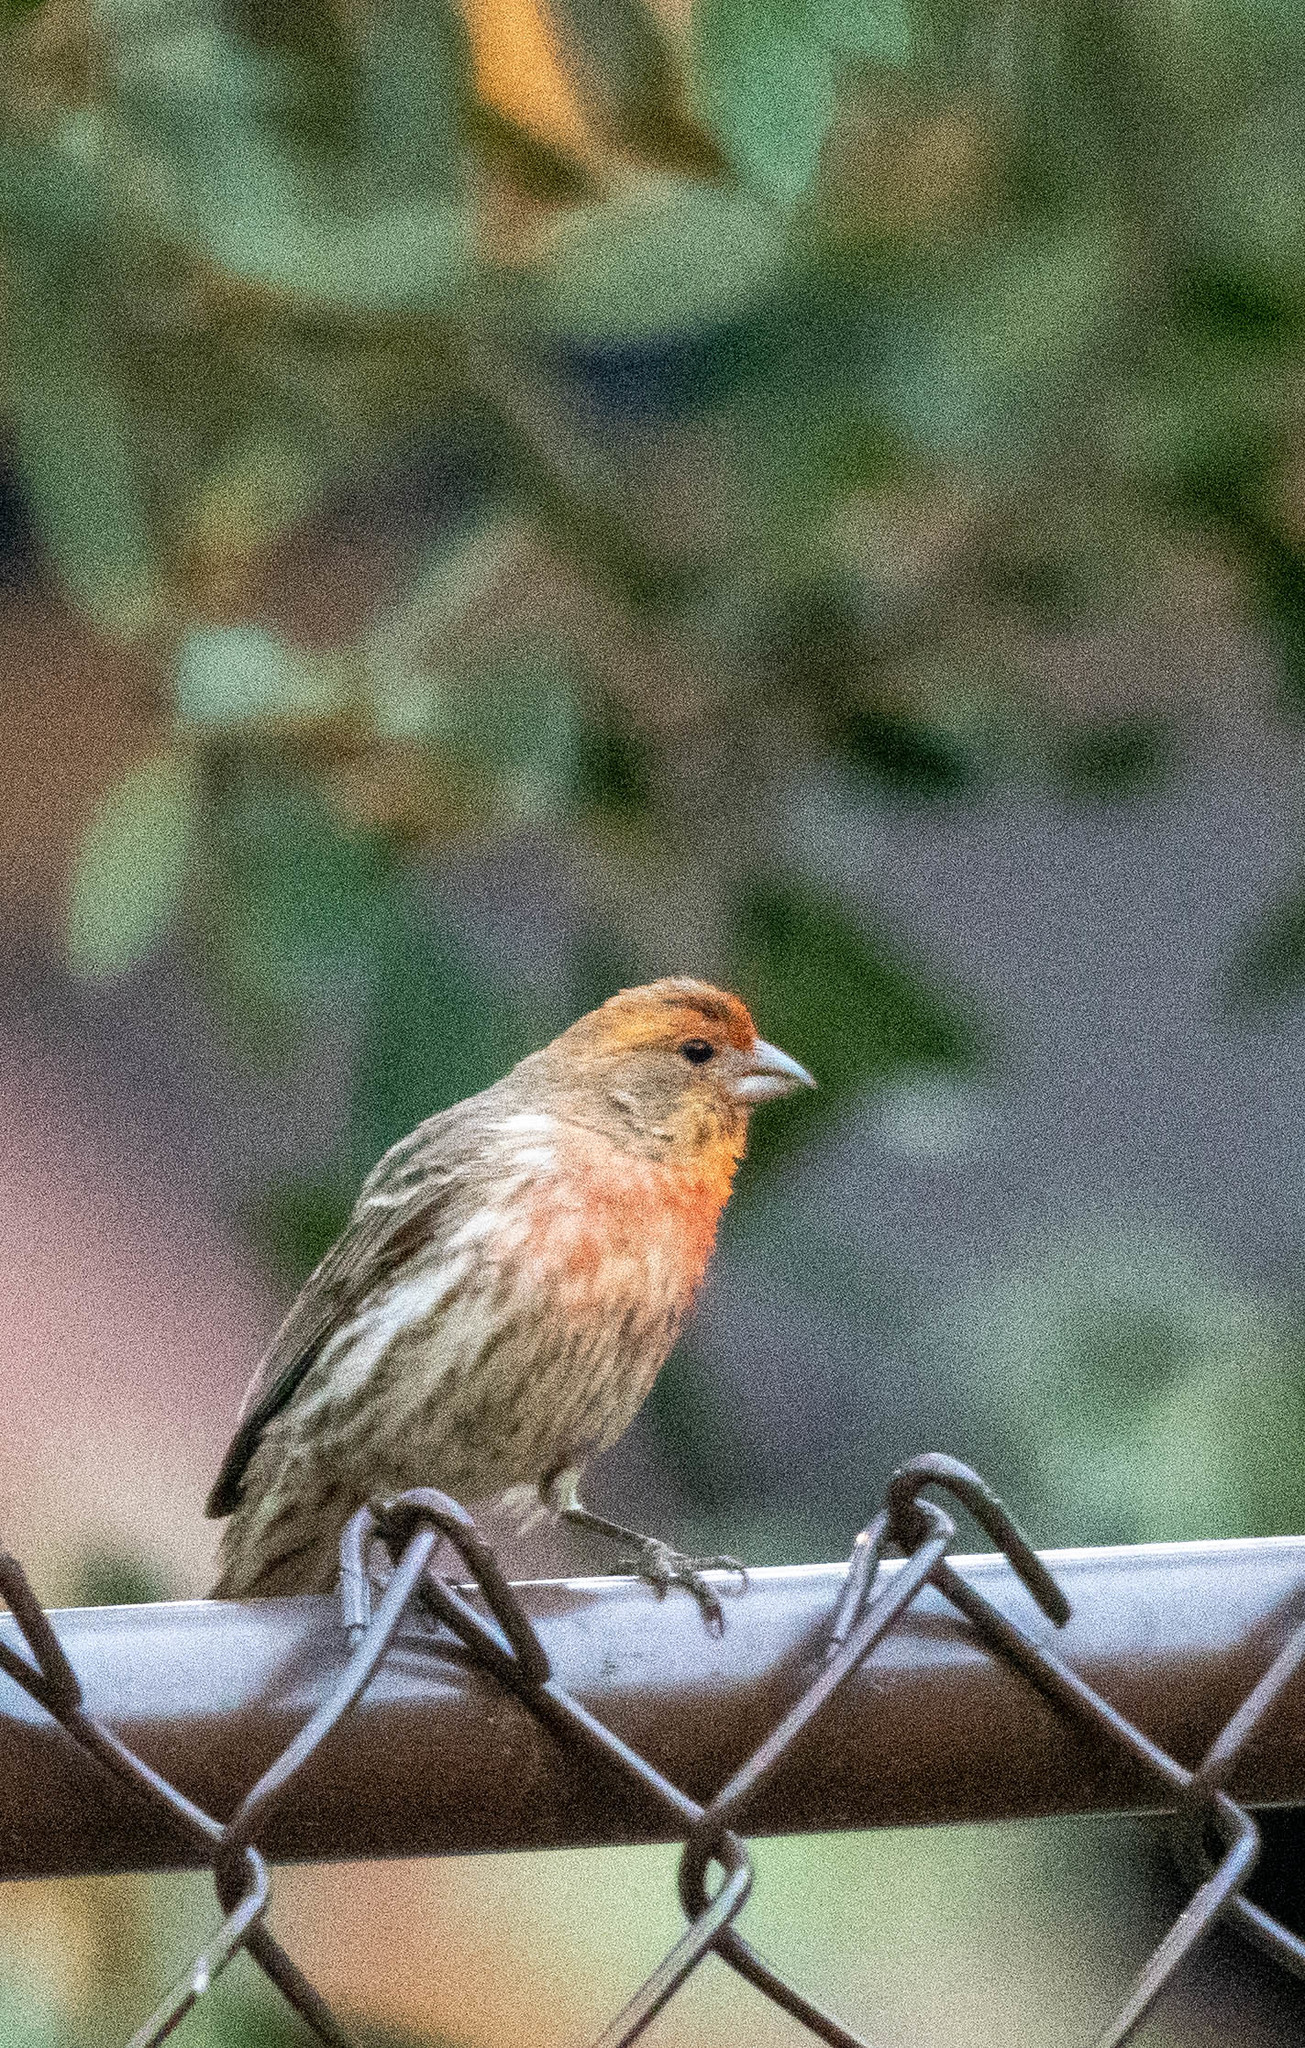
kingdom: Animalia
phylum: Chordata
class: Aves
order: Passeriformes
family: Fringillidae
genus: Haemorhous
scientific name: Haemorhous mexicanus
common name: House finch
